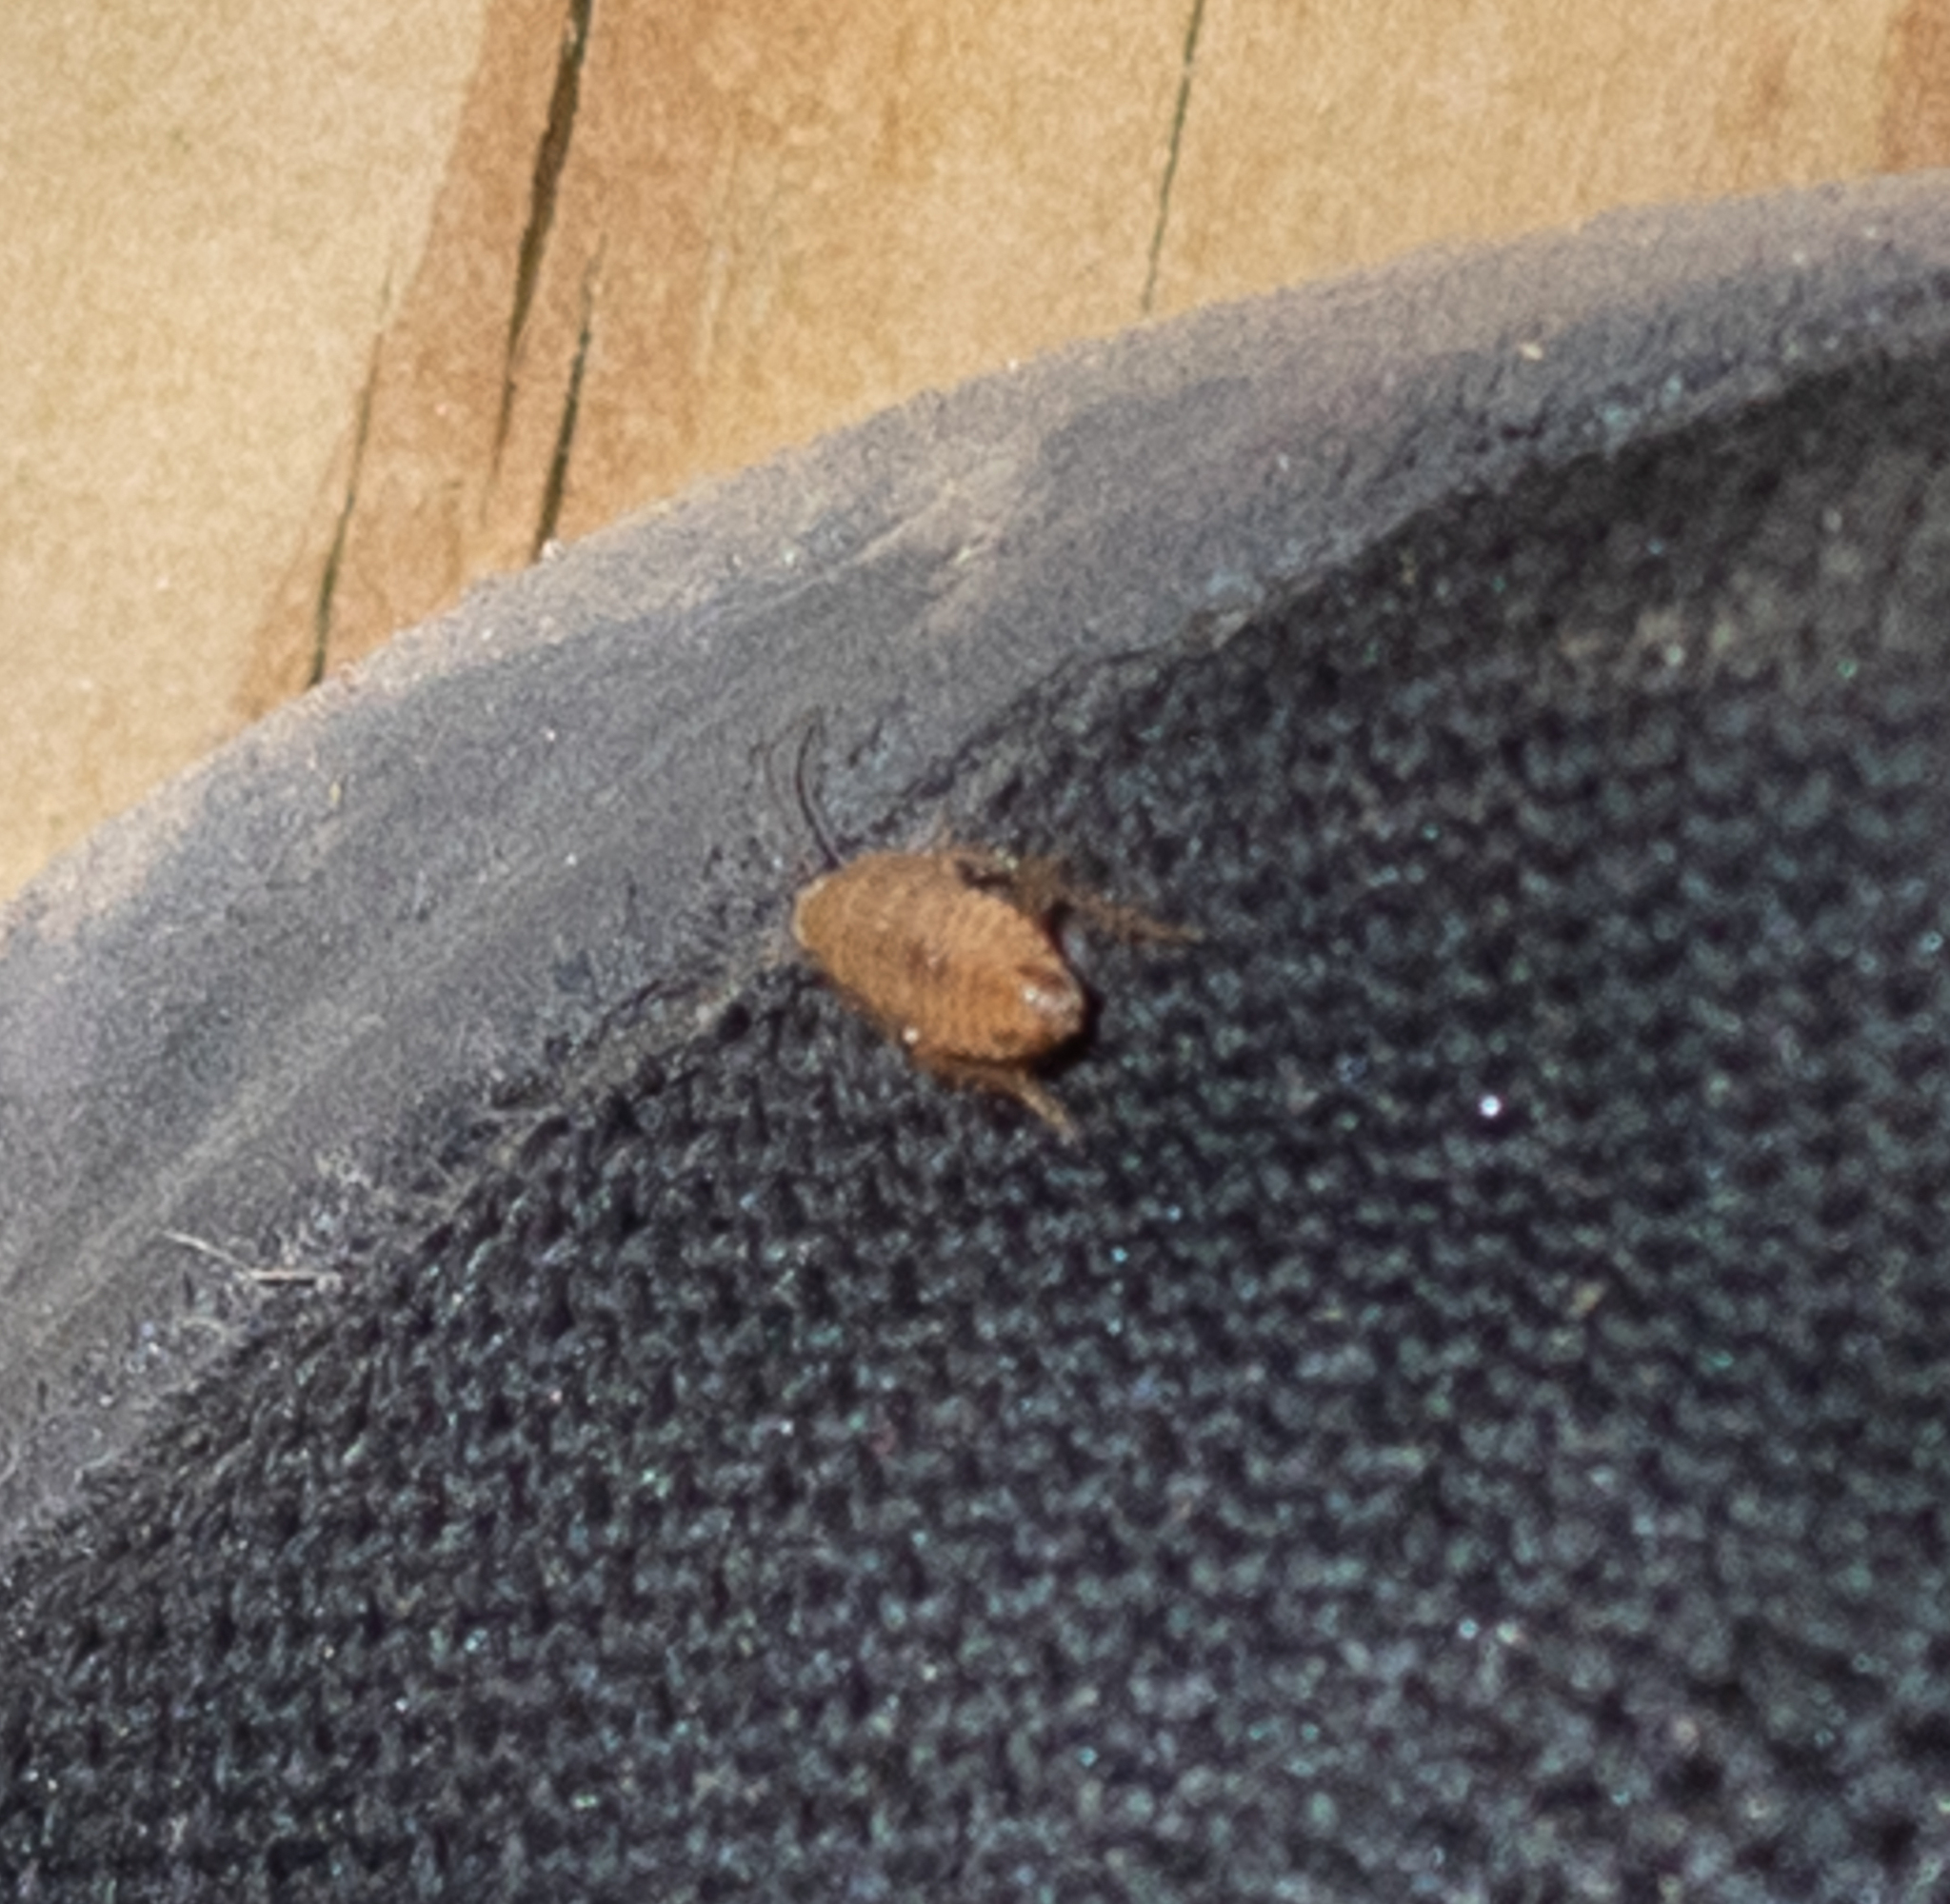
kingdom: Animalia
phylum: Arthropoda
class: Insecta
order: Blattodea
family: Ectobiidae
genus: Ectobius
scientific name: Ectobius pallidus
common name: Tawny cockroach
